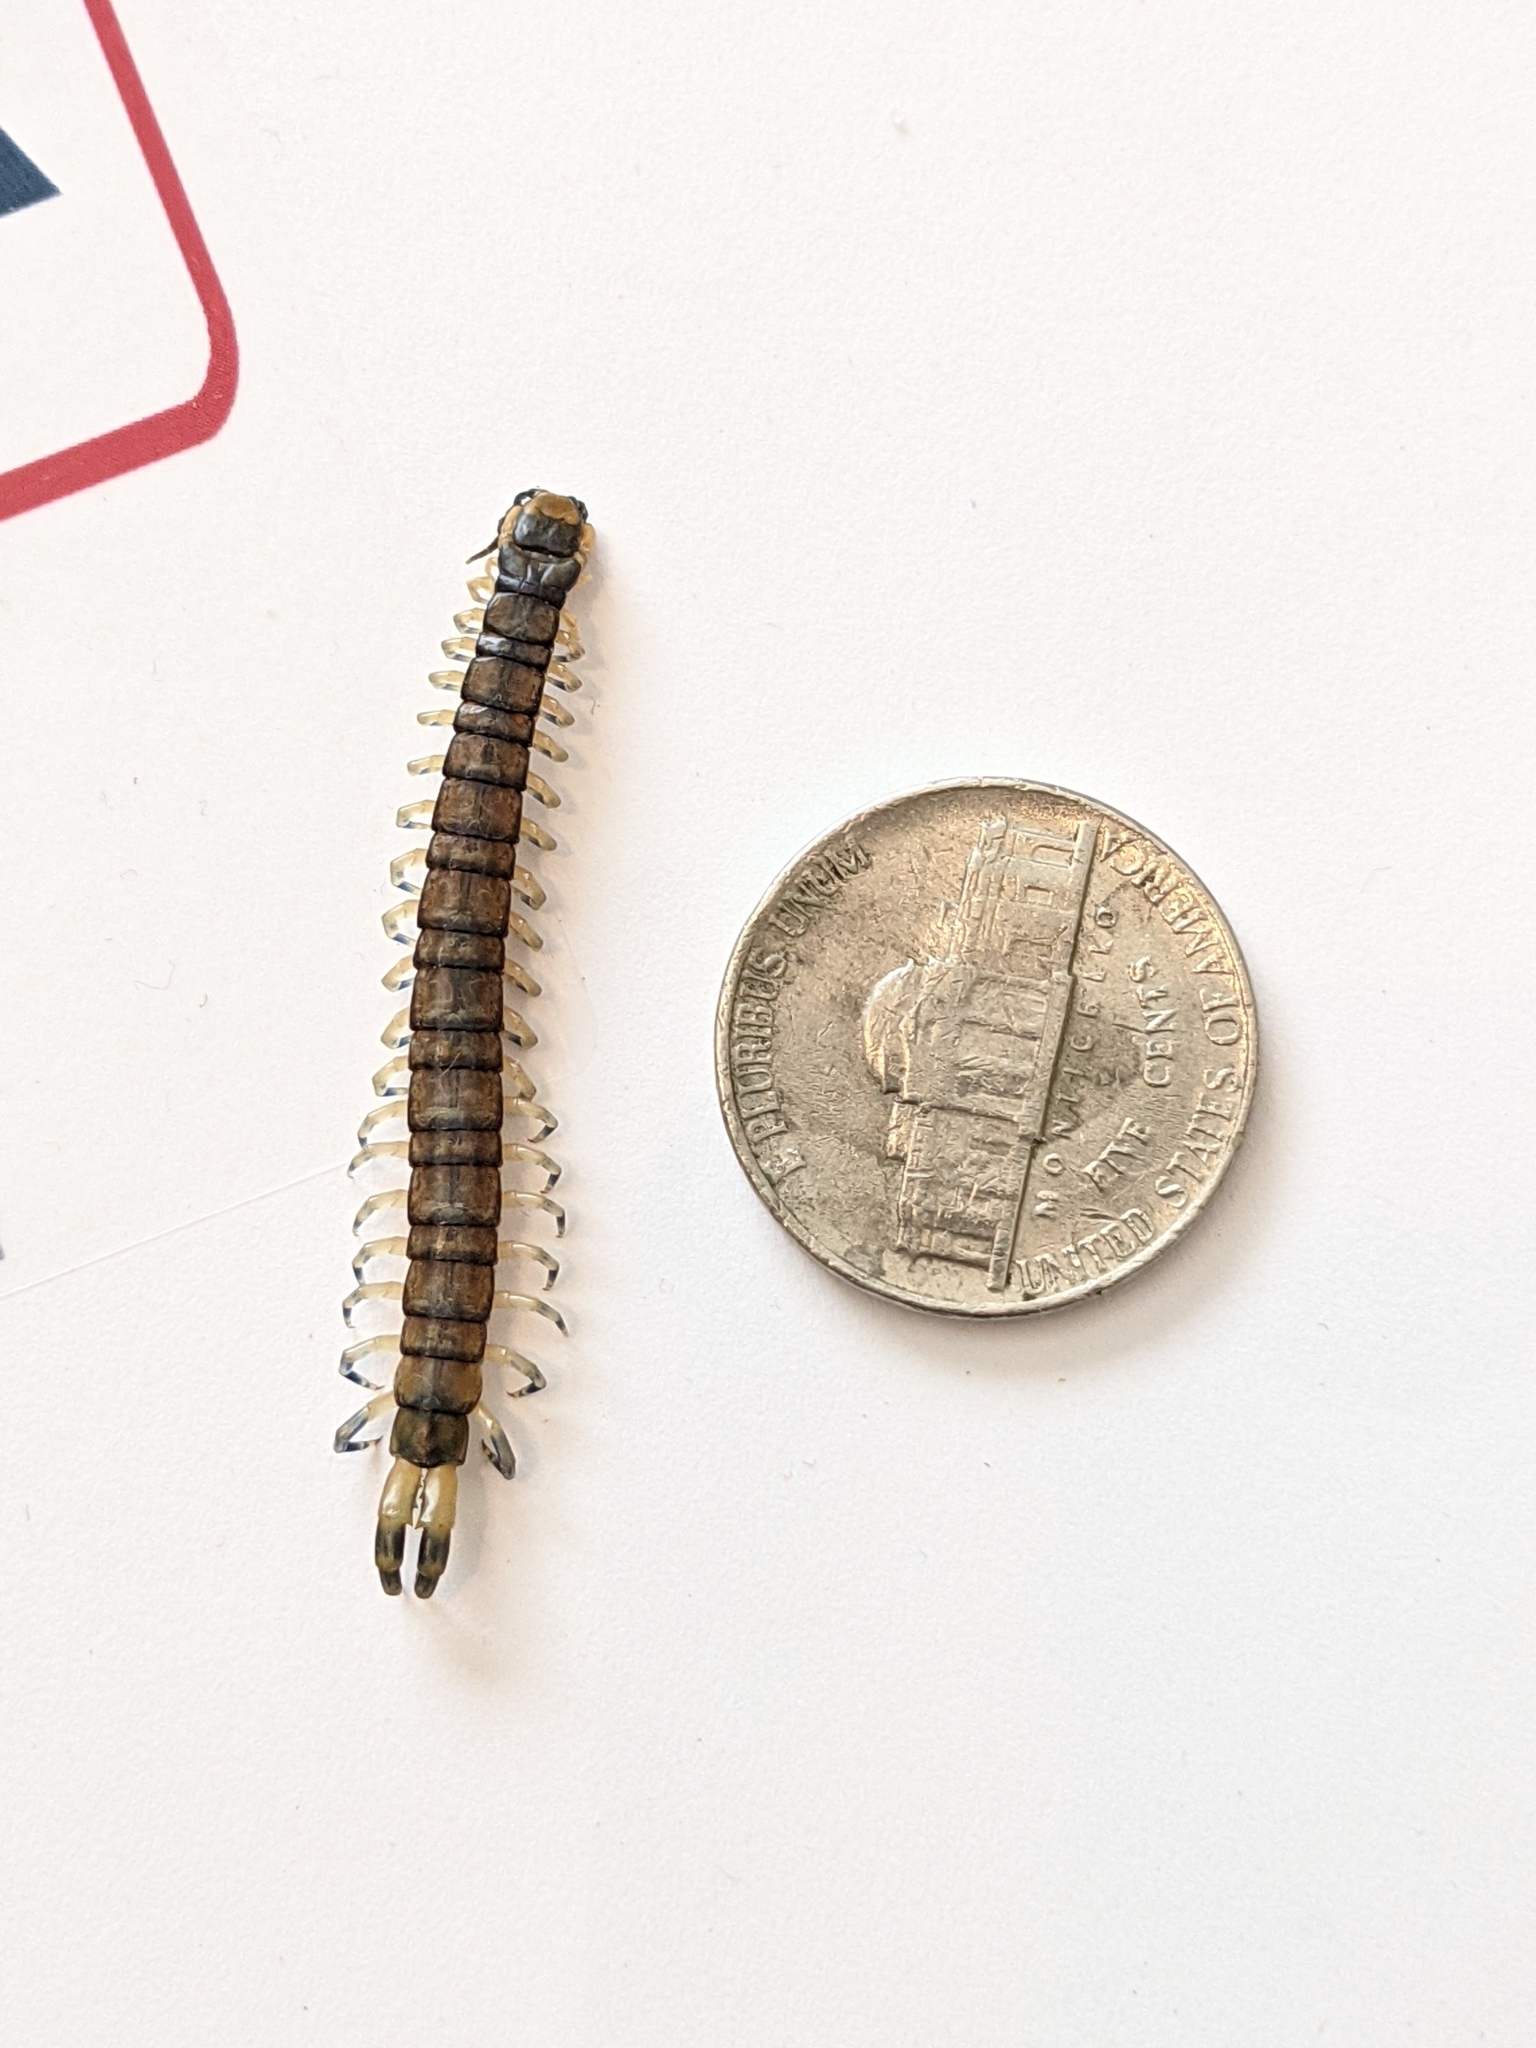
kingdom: Animalia
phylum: Arthropoda
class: Chilopoda
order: Scolopendromorpha
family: Scolopendridae
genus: Hemiscolopendra
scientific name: Hemiscolopendra marginata
